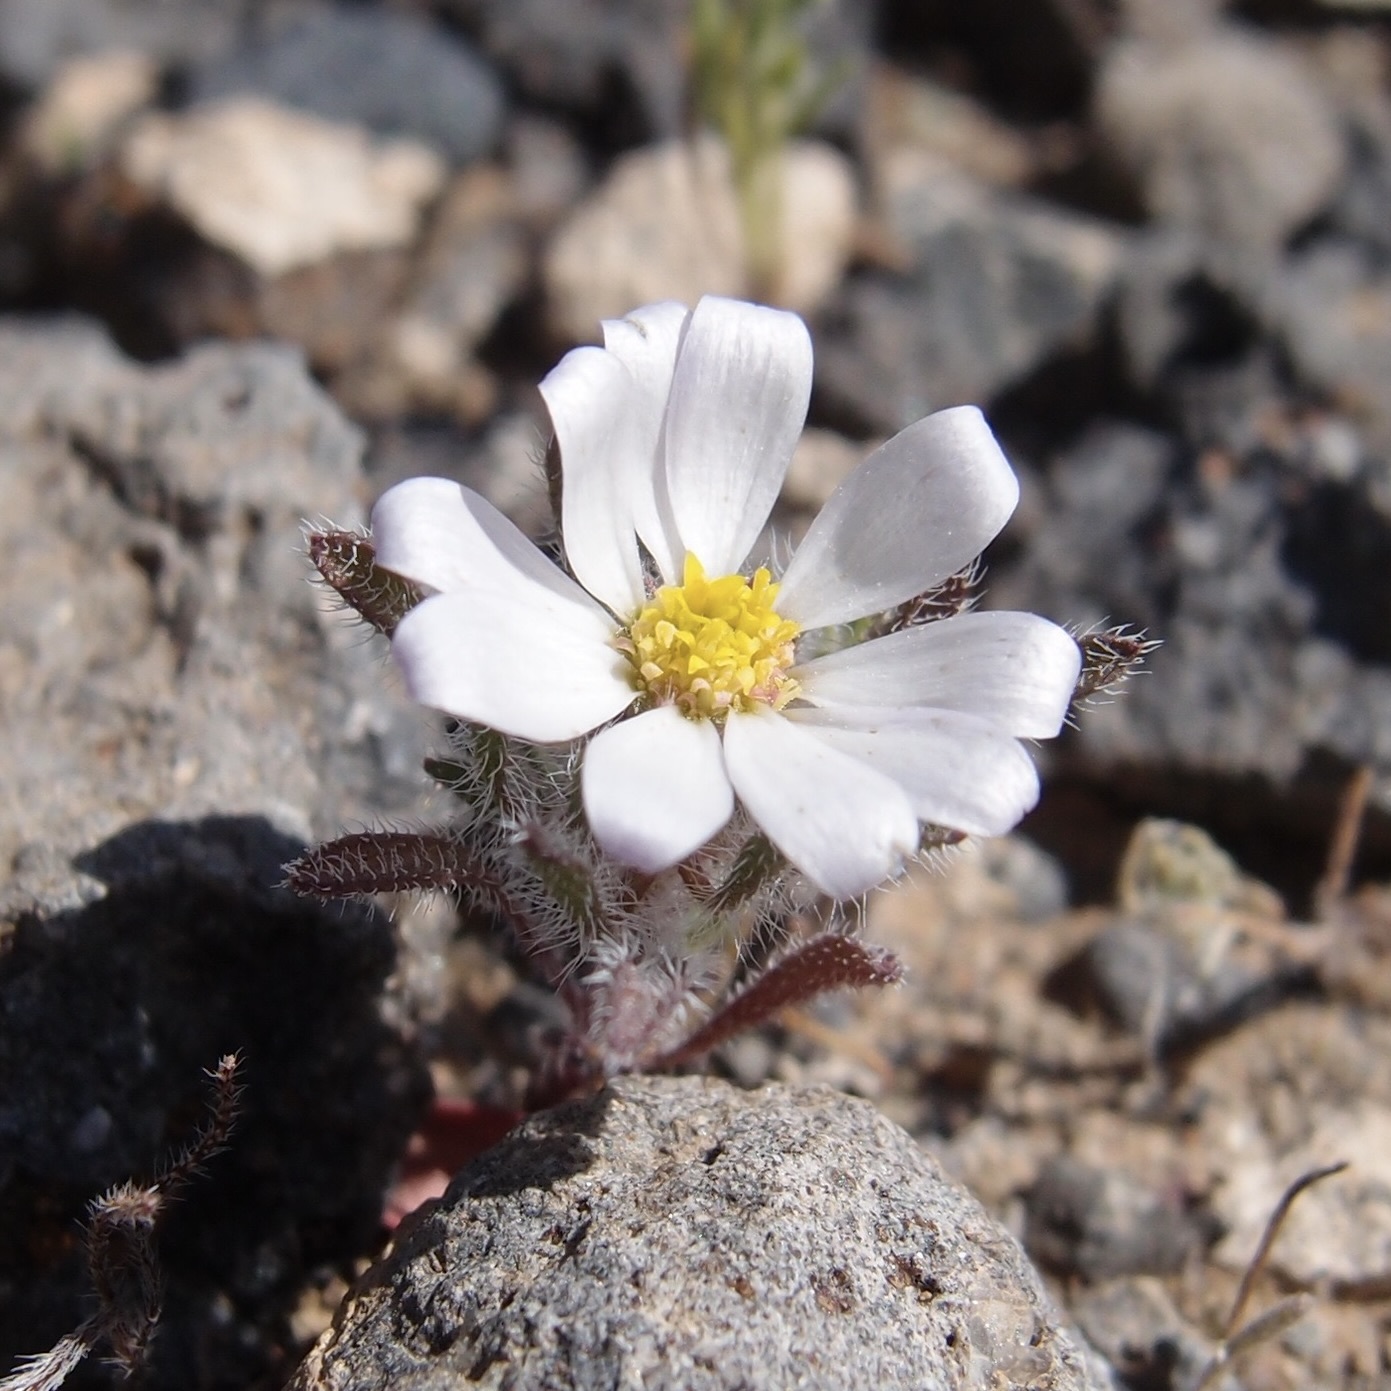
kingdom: Plantae
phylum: Tracheophyta
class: Magnoliopsida
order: Asterales
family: Asteraceae
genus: Monoptilon
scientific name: Monoptilon bellioides
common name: Bristly desertstar
